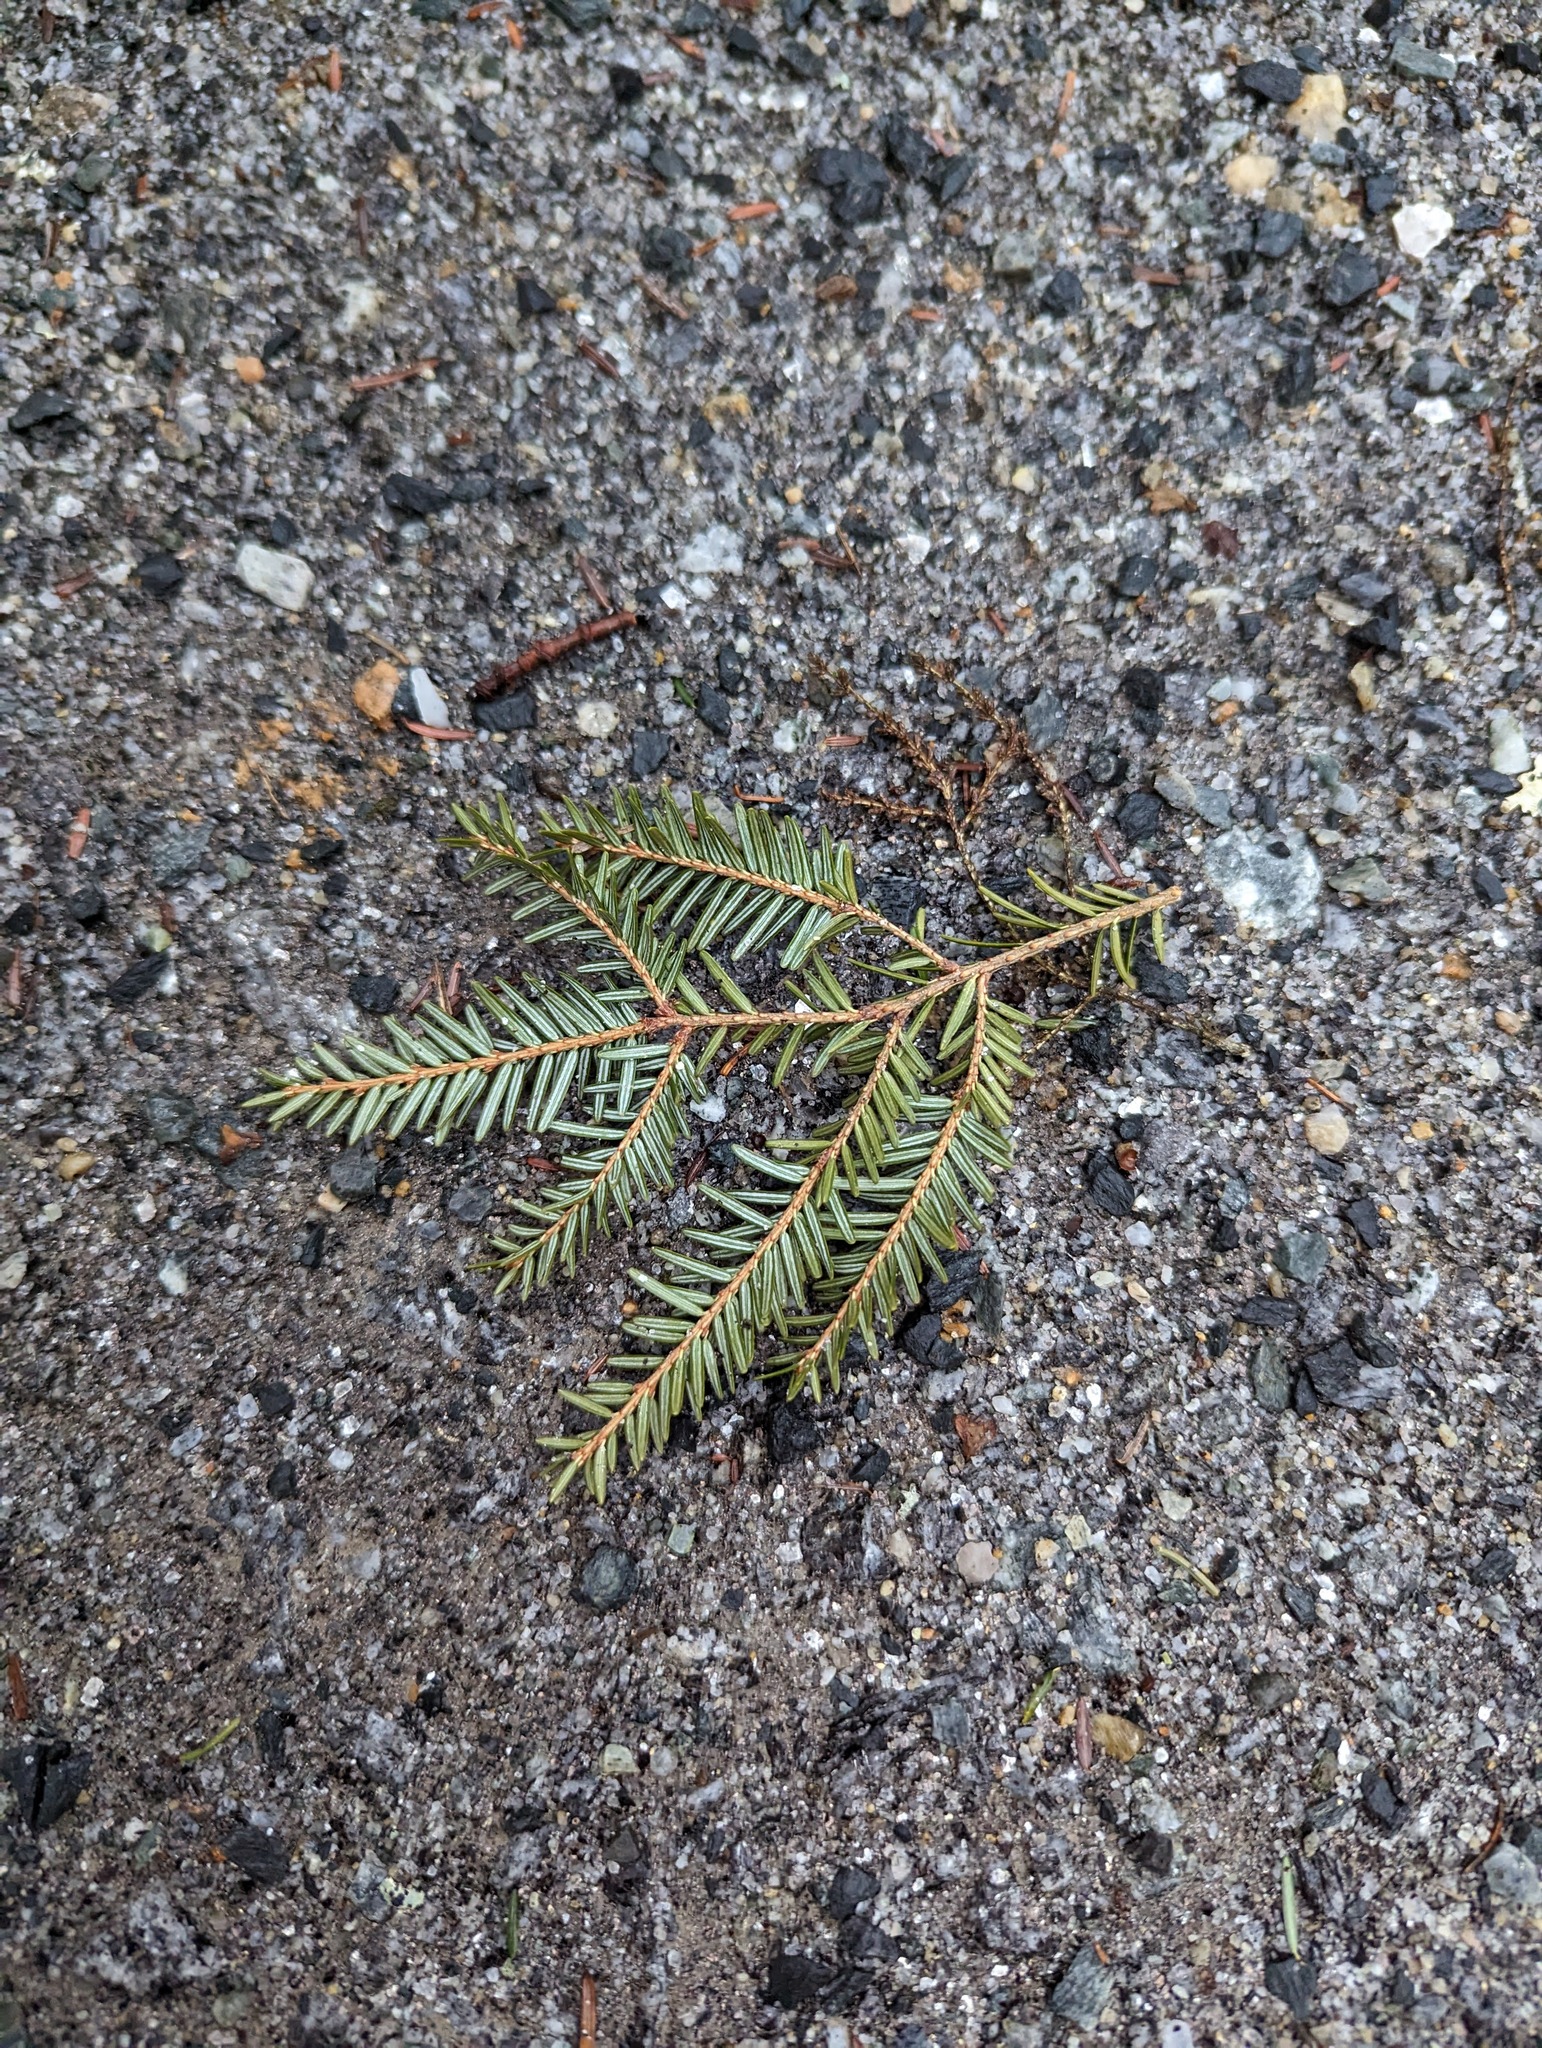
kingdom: Plantae
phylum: Tracheophyta
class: Pinopsida
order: Pinales
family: Pinaceae
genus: Tsuga
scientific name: Tsuga canadensis
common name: Eastern hemlock
